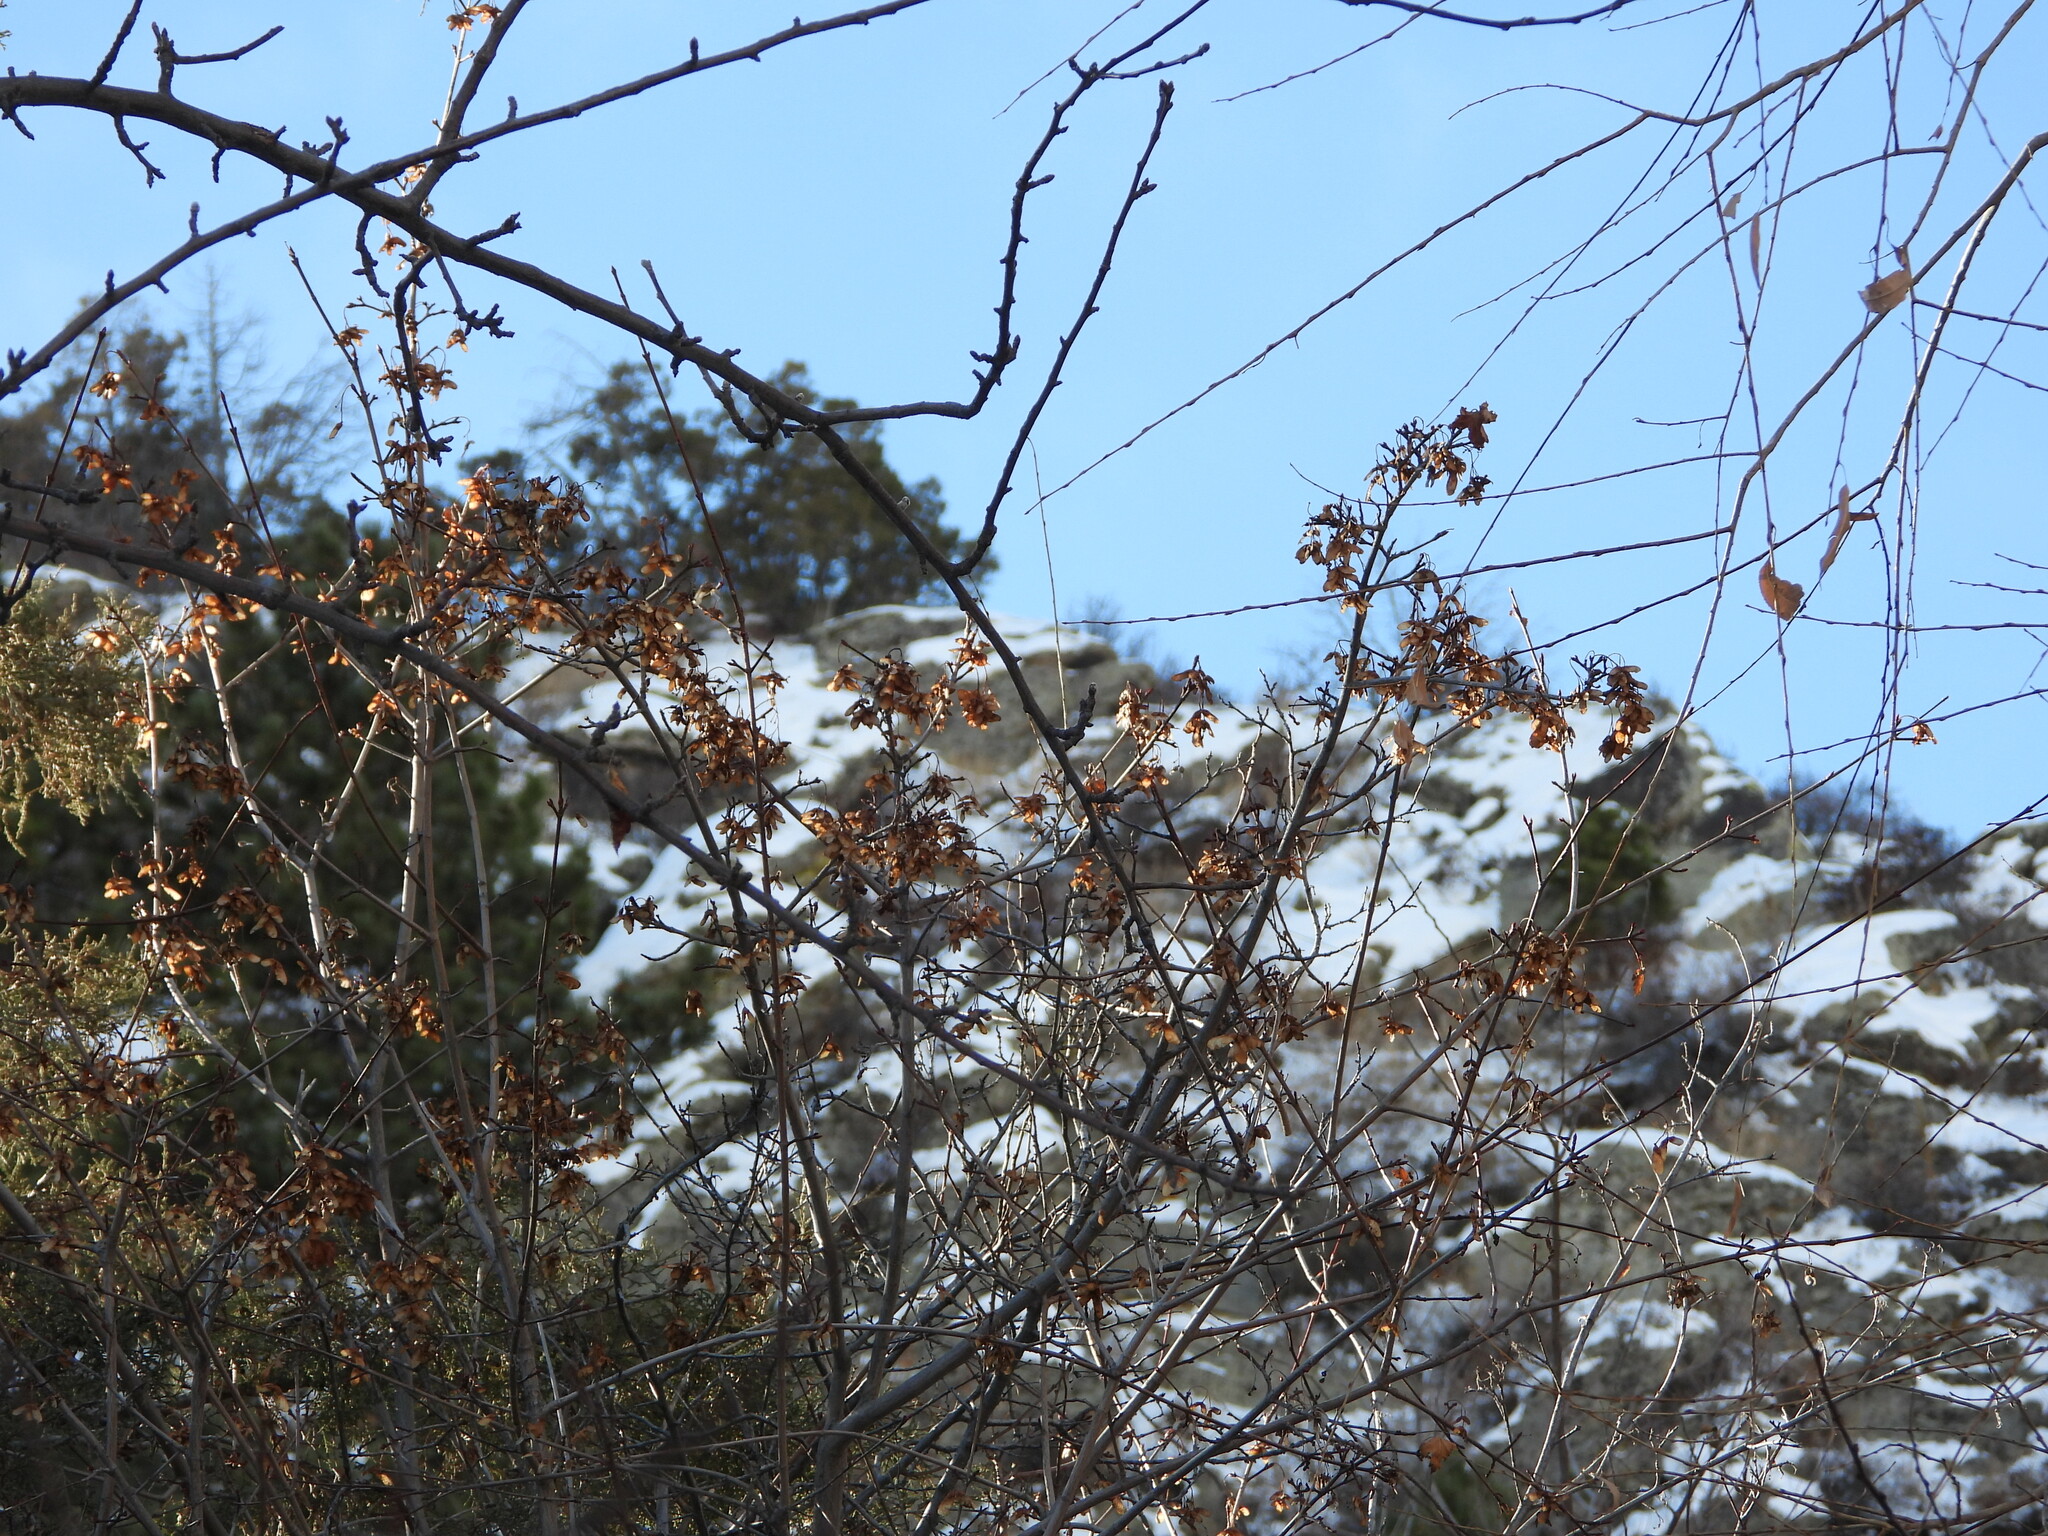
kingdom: Plantae
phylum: Tracheophyta
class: Magnoliopsida
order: Sapindales
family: Sapindaceae
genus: Acer
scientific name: Acer glabrum
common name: Rocky mountain maple
